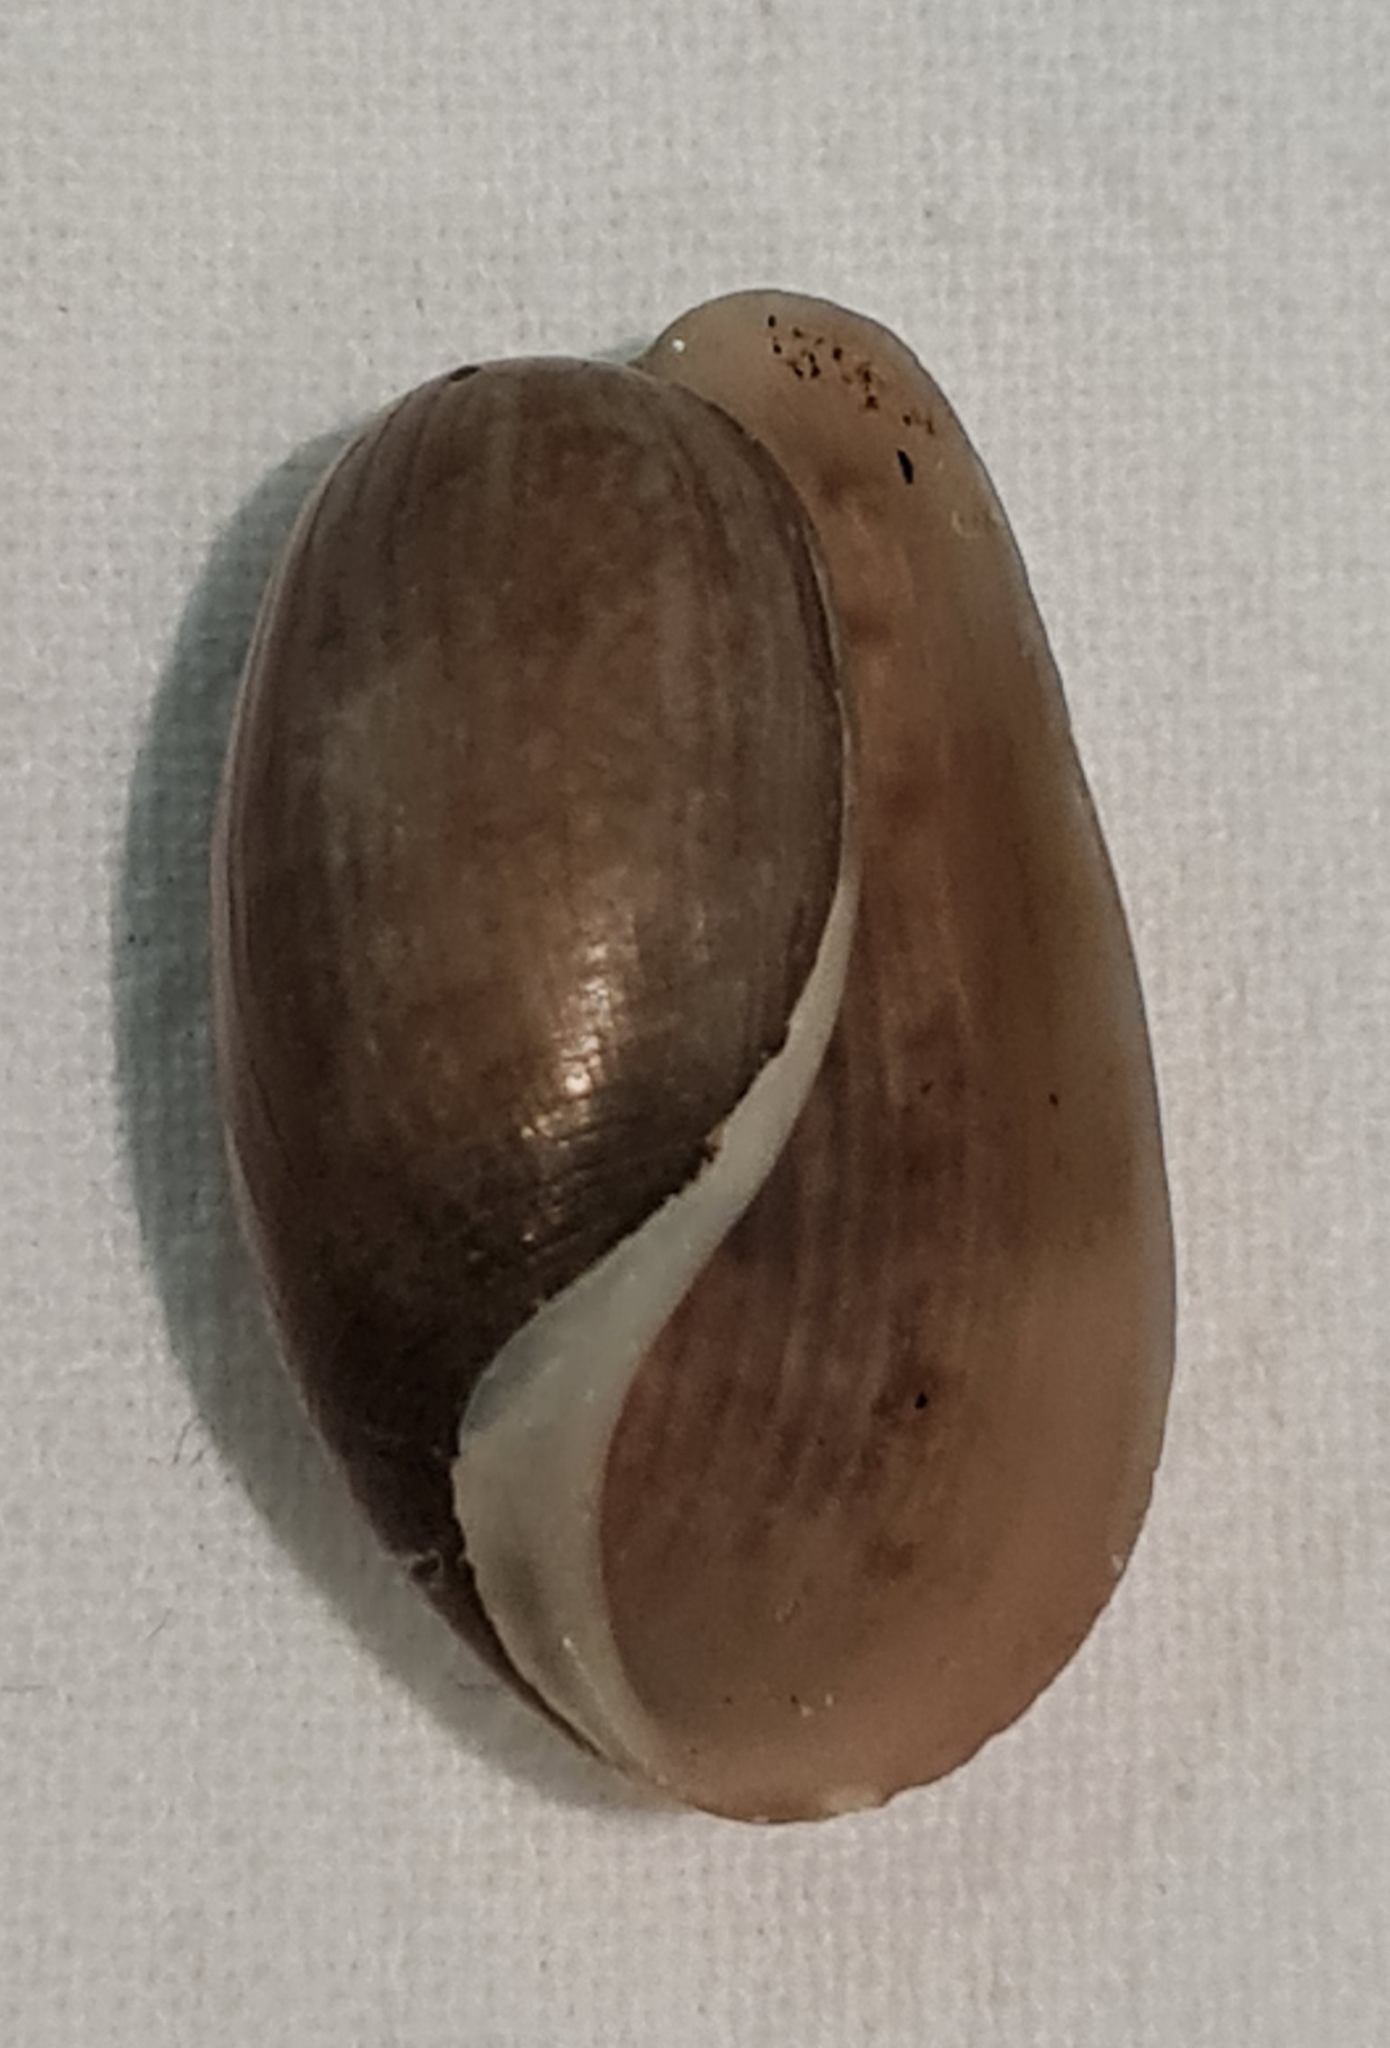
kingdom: Animalia
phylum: Mollusca
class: Gastropoda
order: Cephalaspidea
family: Bullidae
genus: Bulla
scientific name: Bulla occidentalis
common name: Common west-indian bubble
